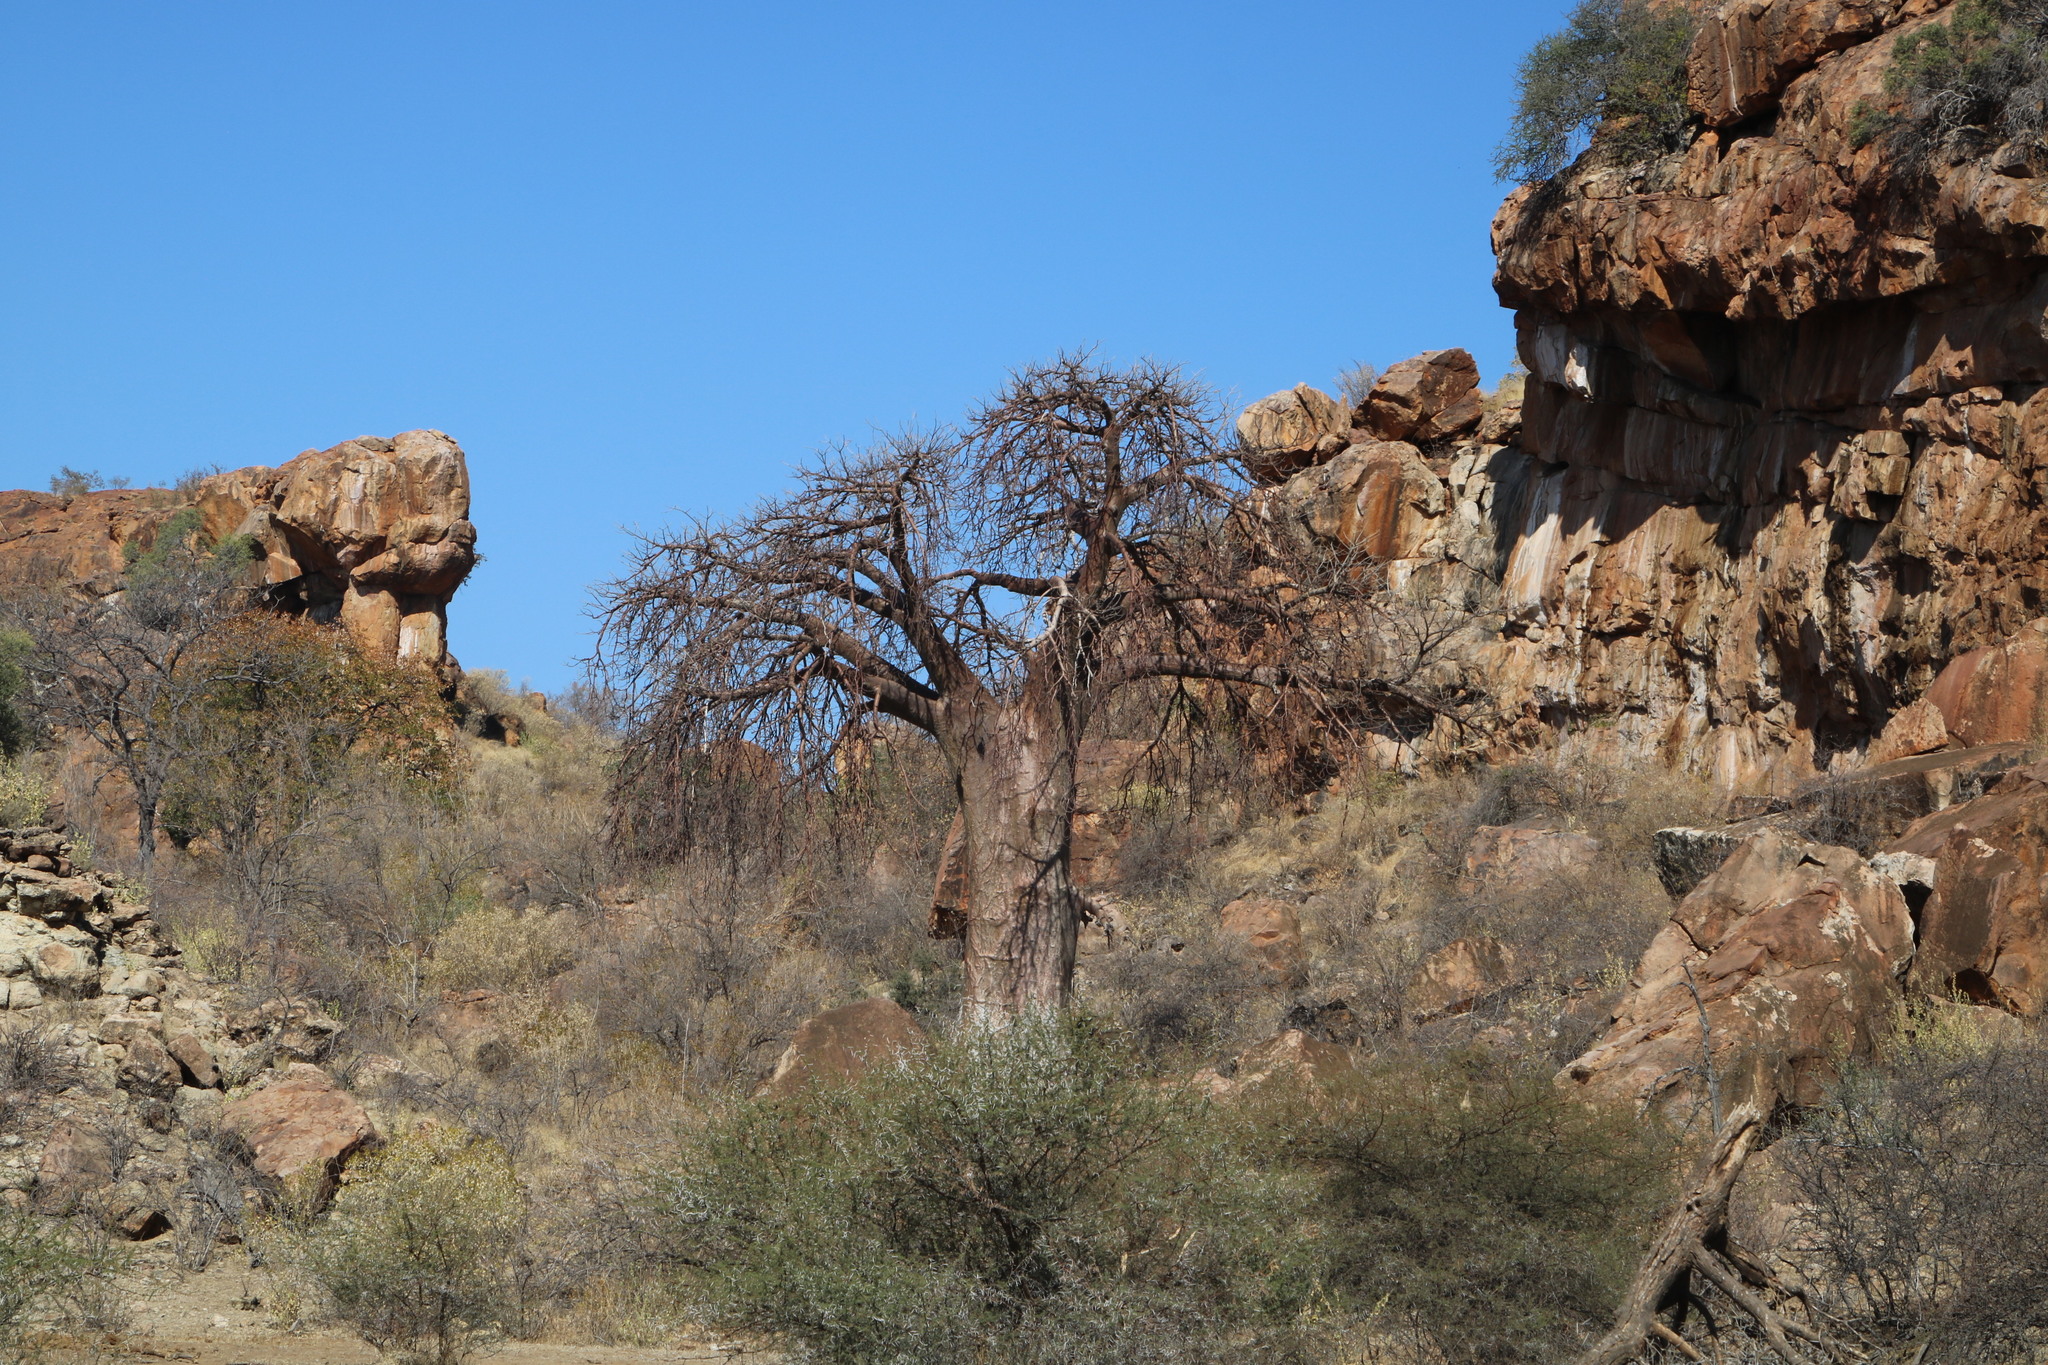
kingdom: Plantae
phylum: Tracheophyta
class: Magnoliopsida
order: Malvales
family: Malvaceae
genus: Adansonia
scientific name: Adansonia digitata
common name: Dead-rat-tree
